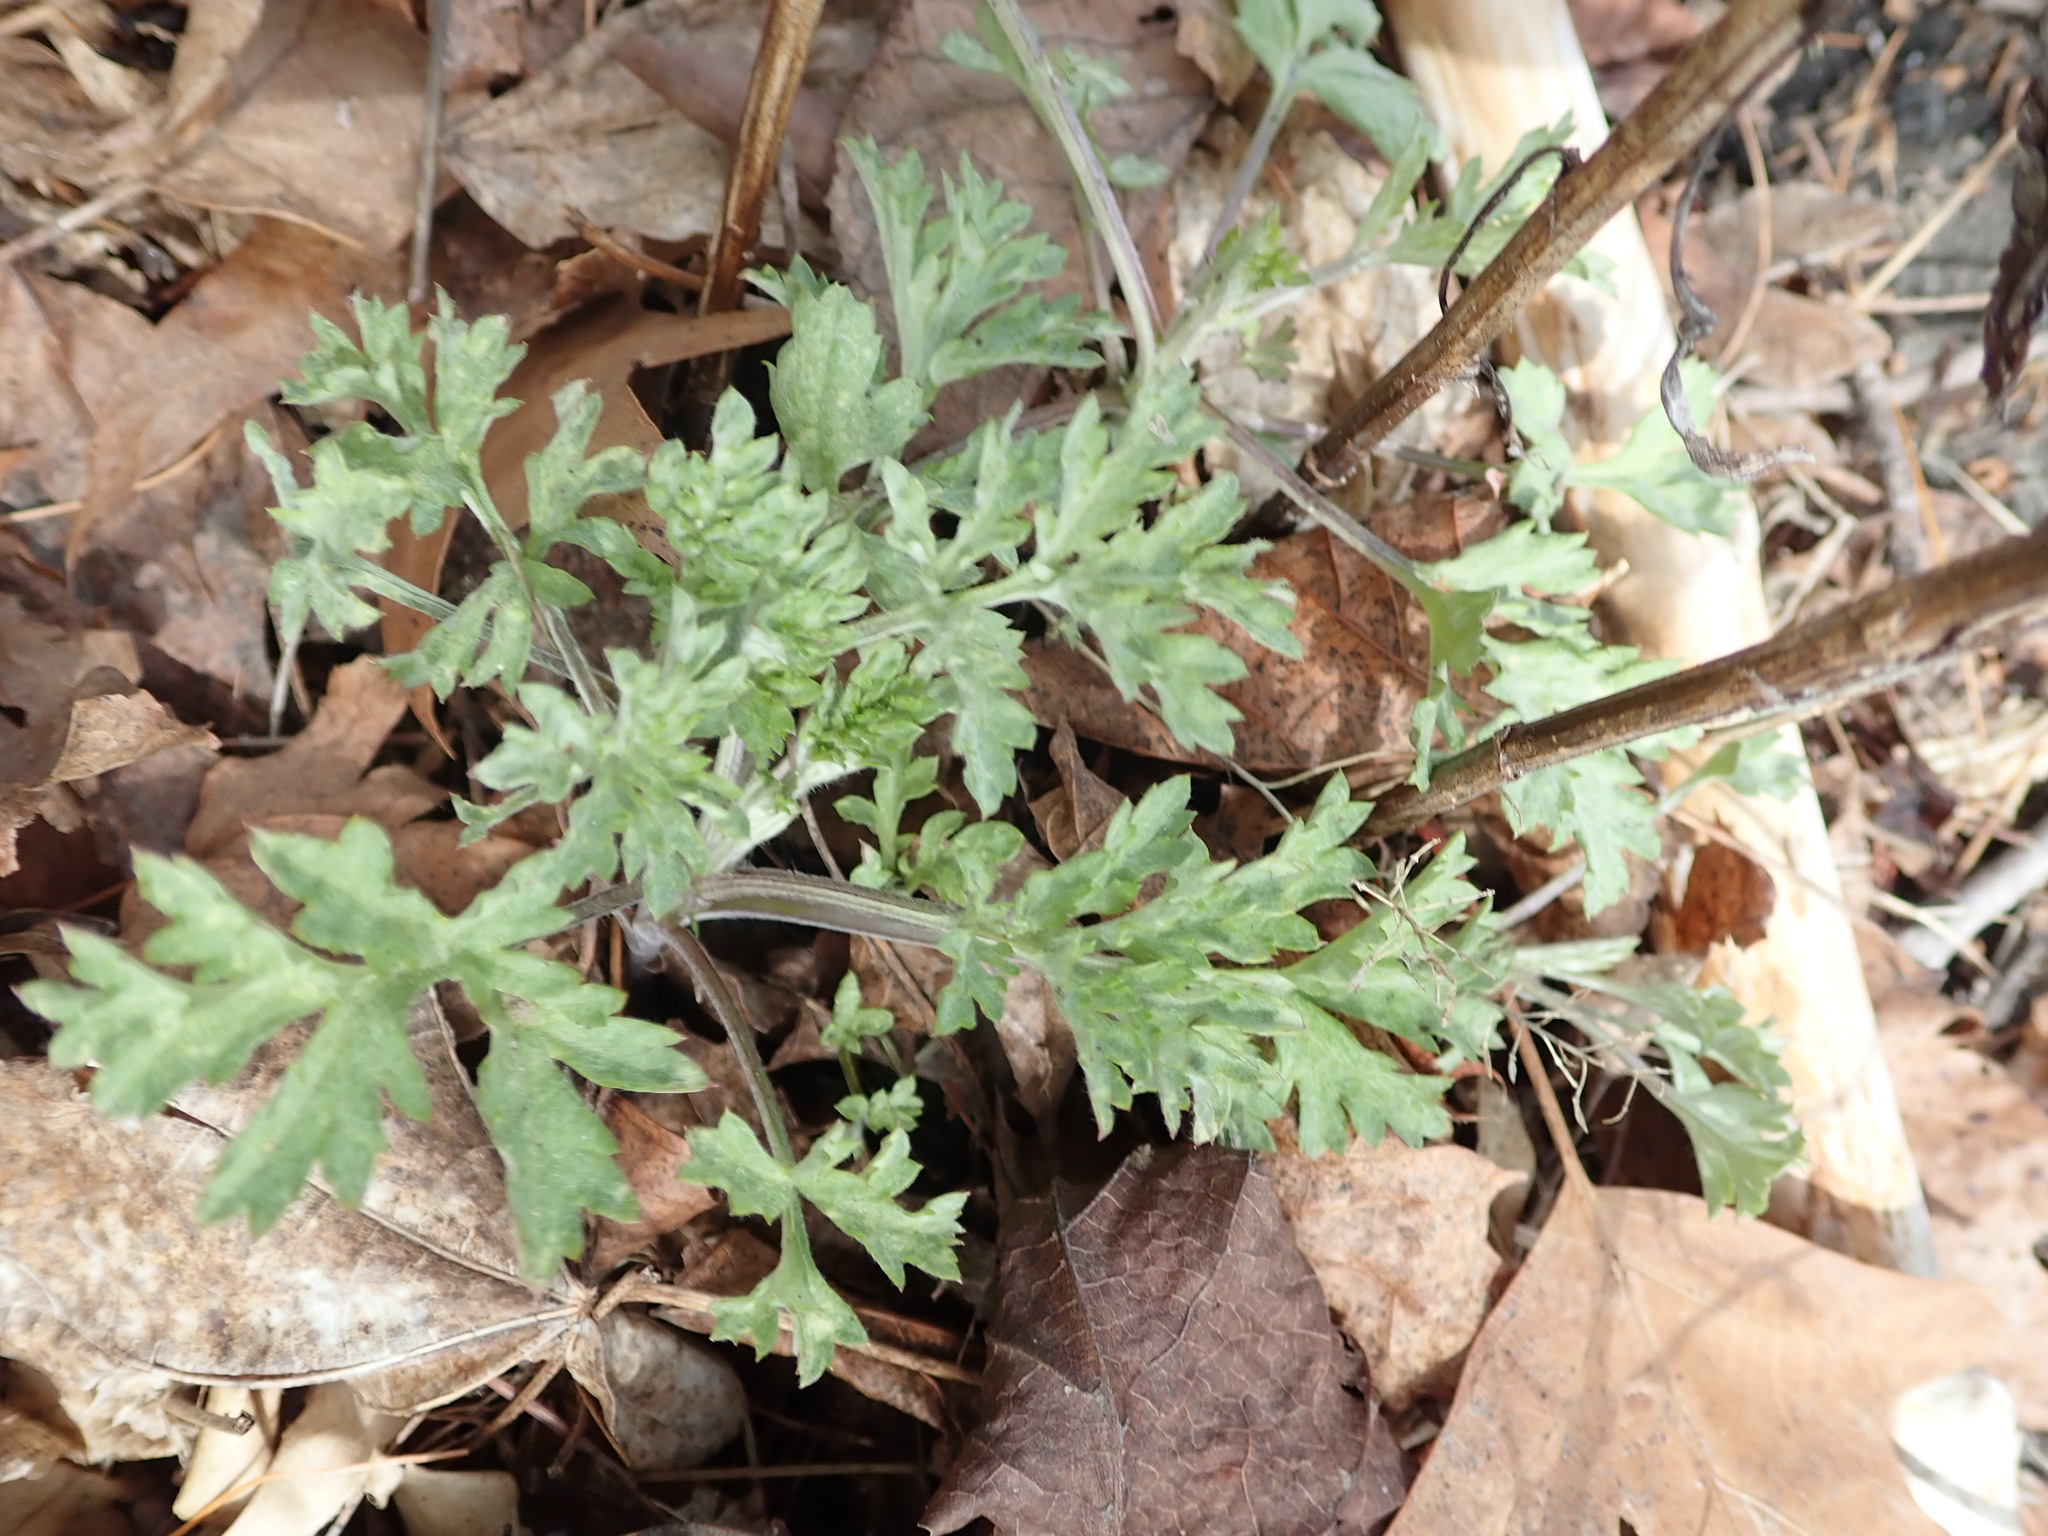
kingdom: Plantae
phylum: Tracheophyta
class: Magnoliopsida
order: Asterales
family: Asteraceae
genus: Artemisia
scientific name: Artemisia vulgaris
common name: Mugwort
